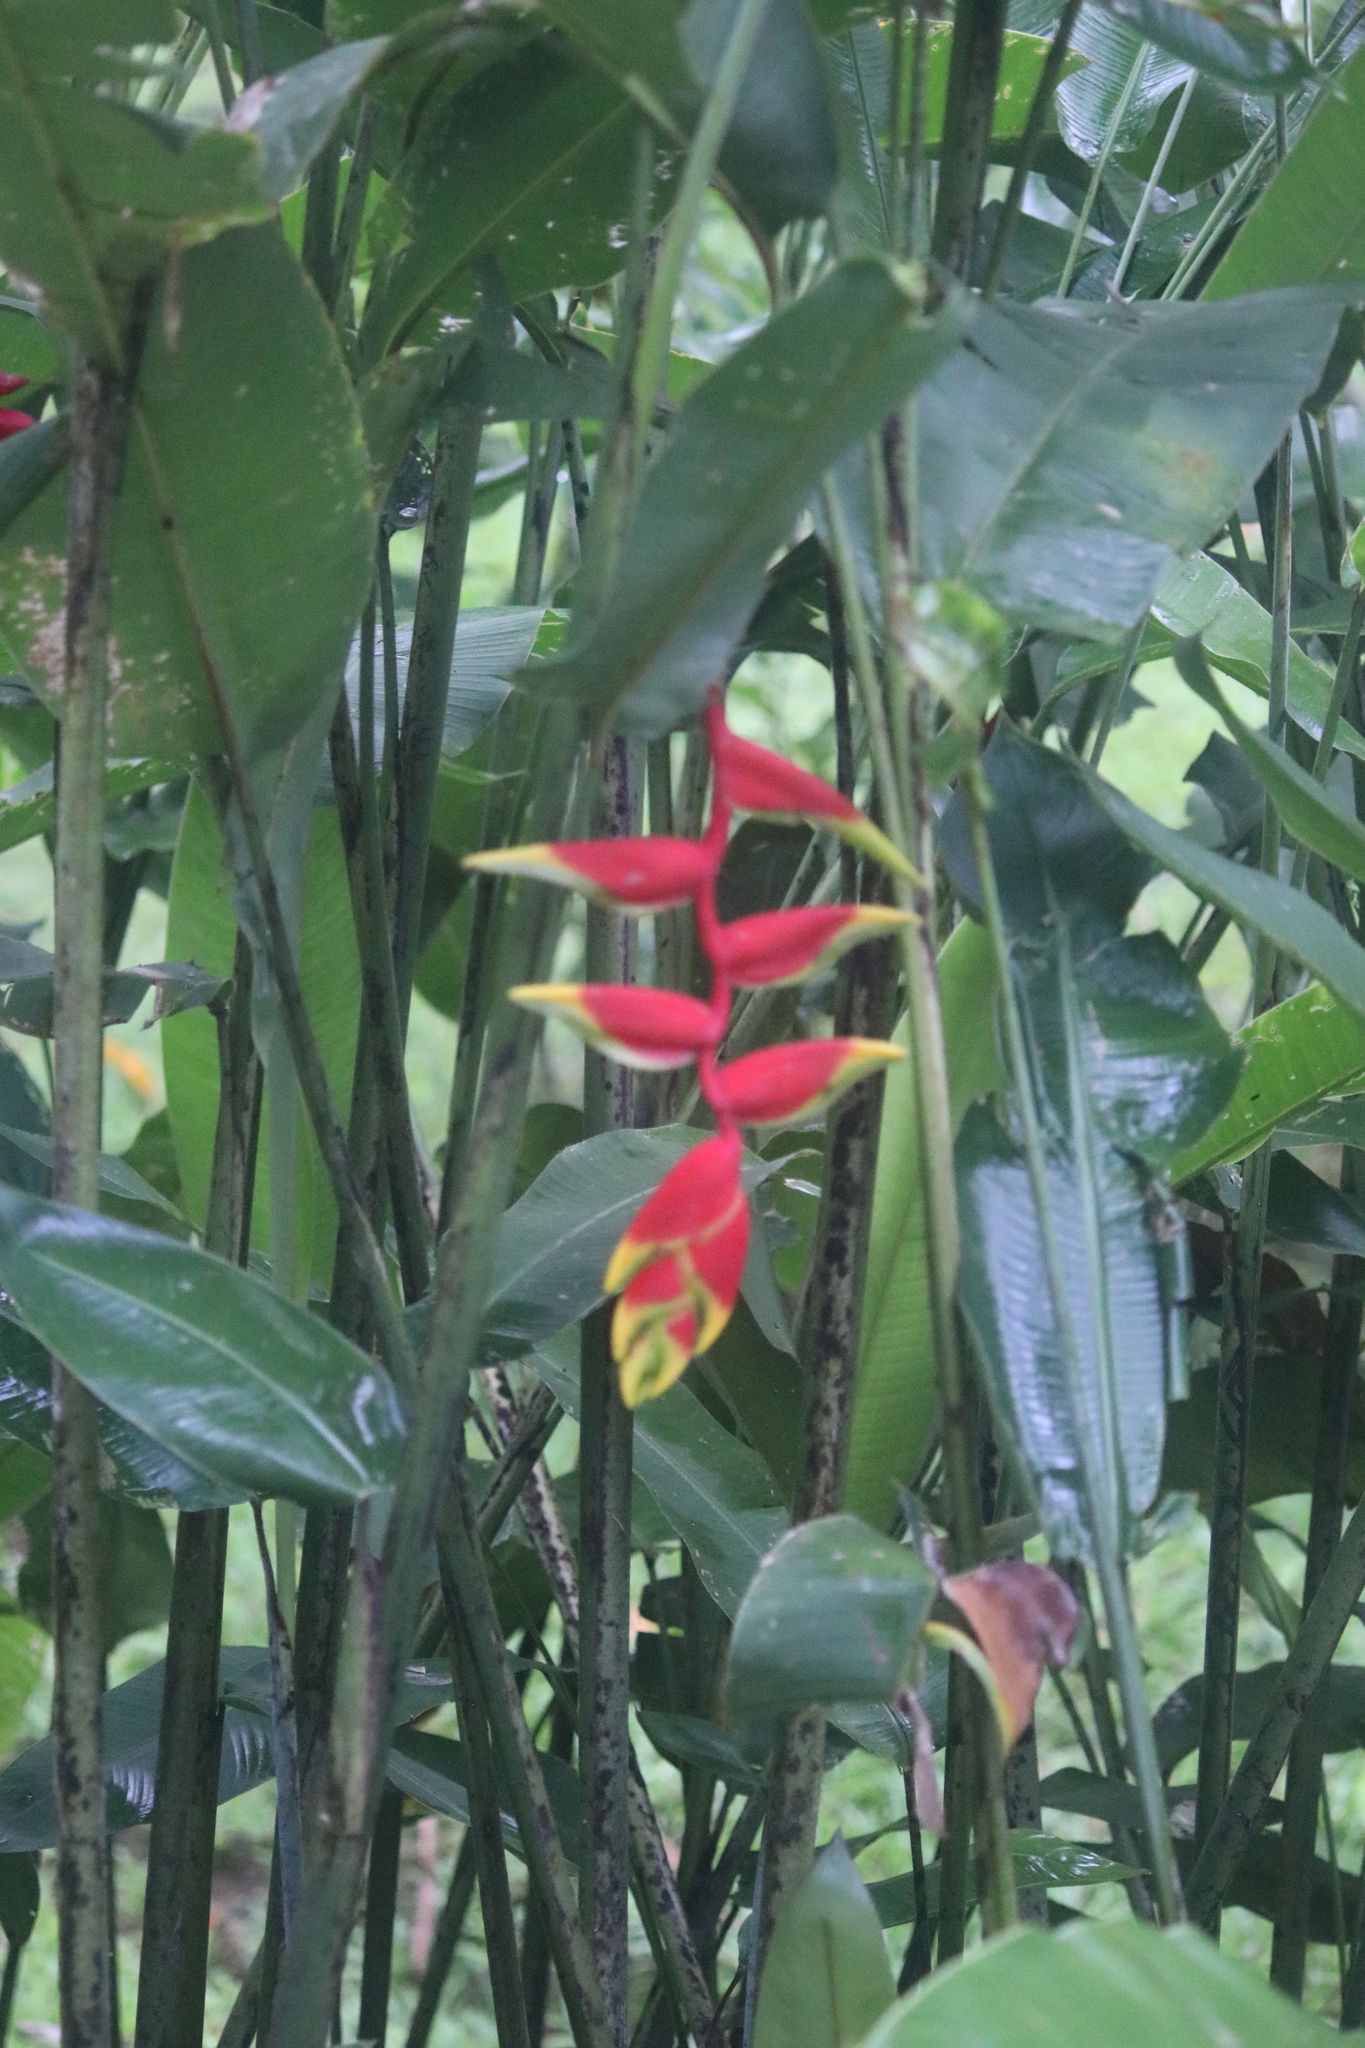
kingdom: Plantae
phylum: Tracheophyta
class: Liliopsida
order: Zingiberales
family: Heliconiaceae
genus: Heliconia
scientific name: Heliconia rostrata
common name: False bird of paradise
